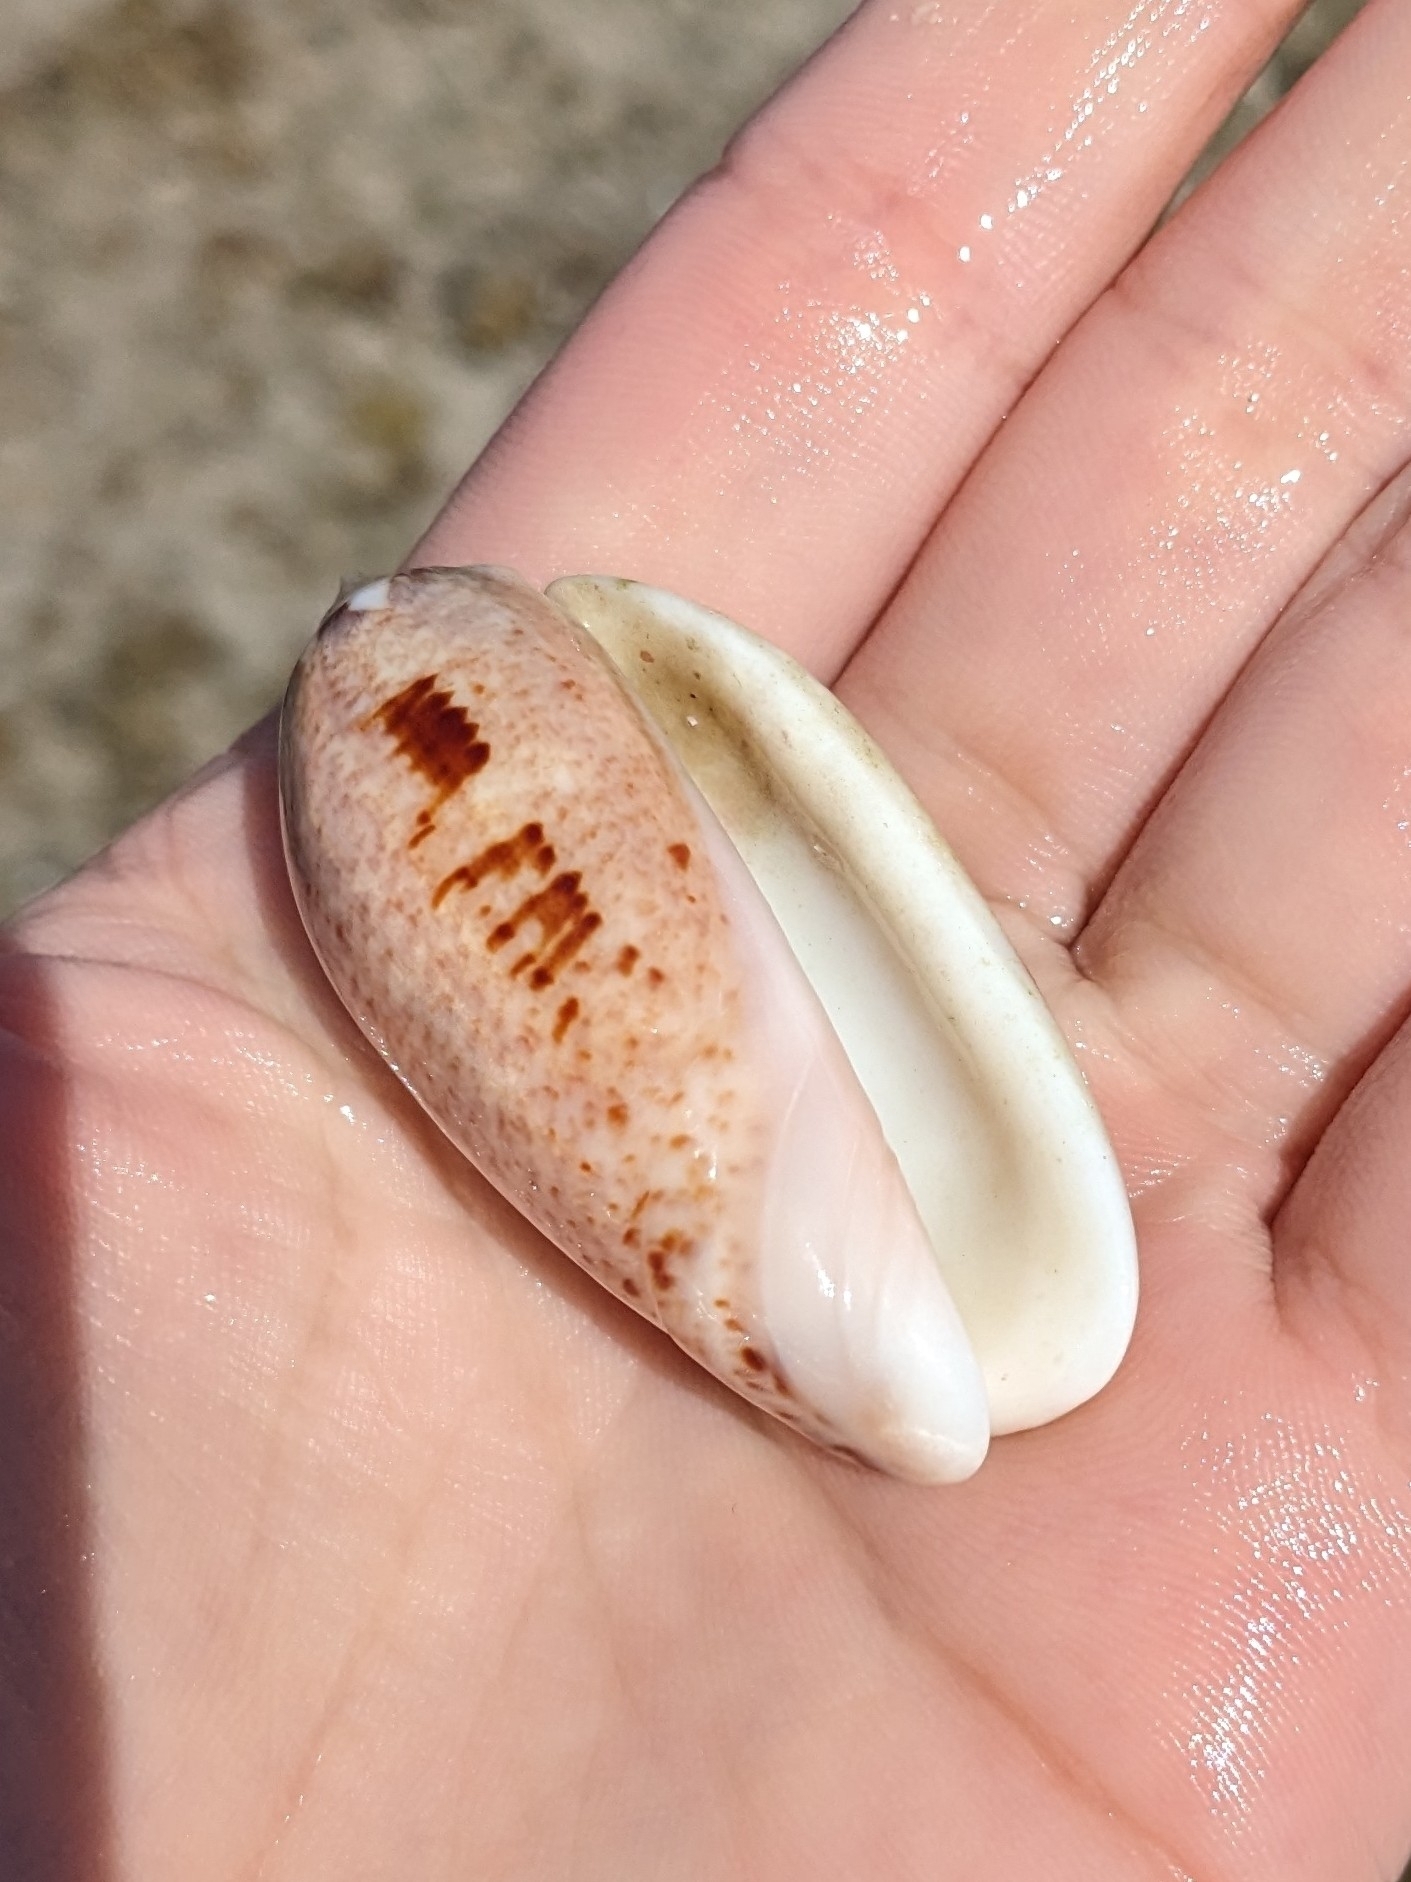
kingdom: Animalia
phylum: Mollusca
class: Gastropoda
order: Neogastropoda
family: Olividae
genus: Oliva
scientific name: Oliva incrassata
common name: Angled olive
